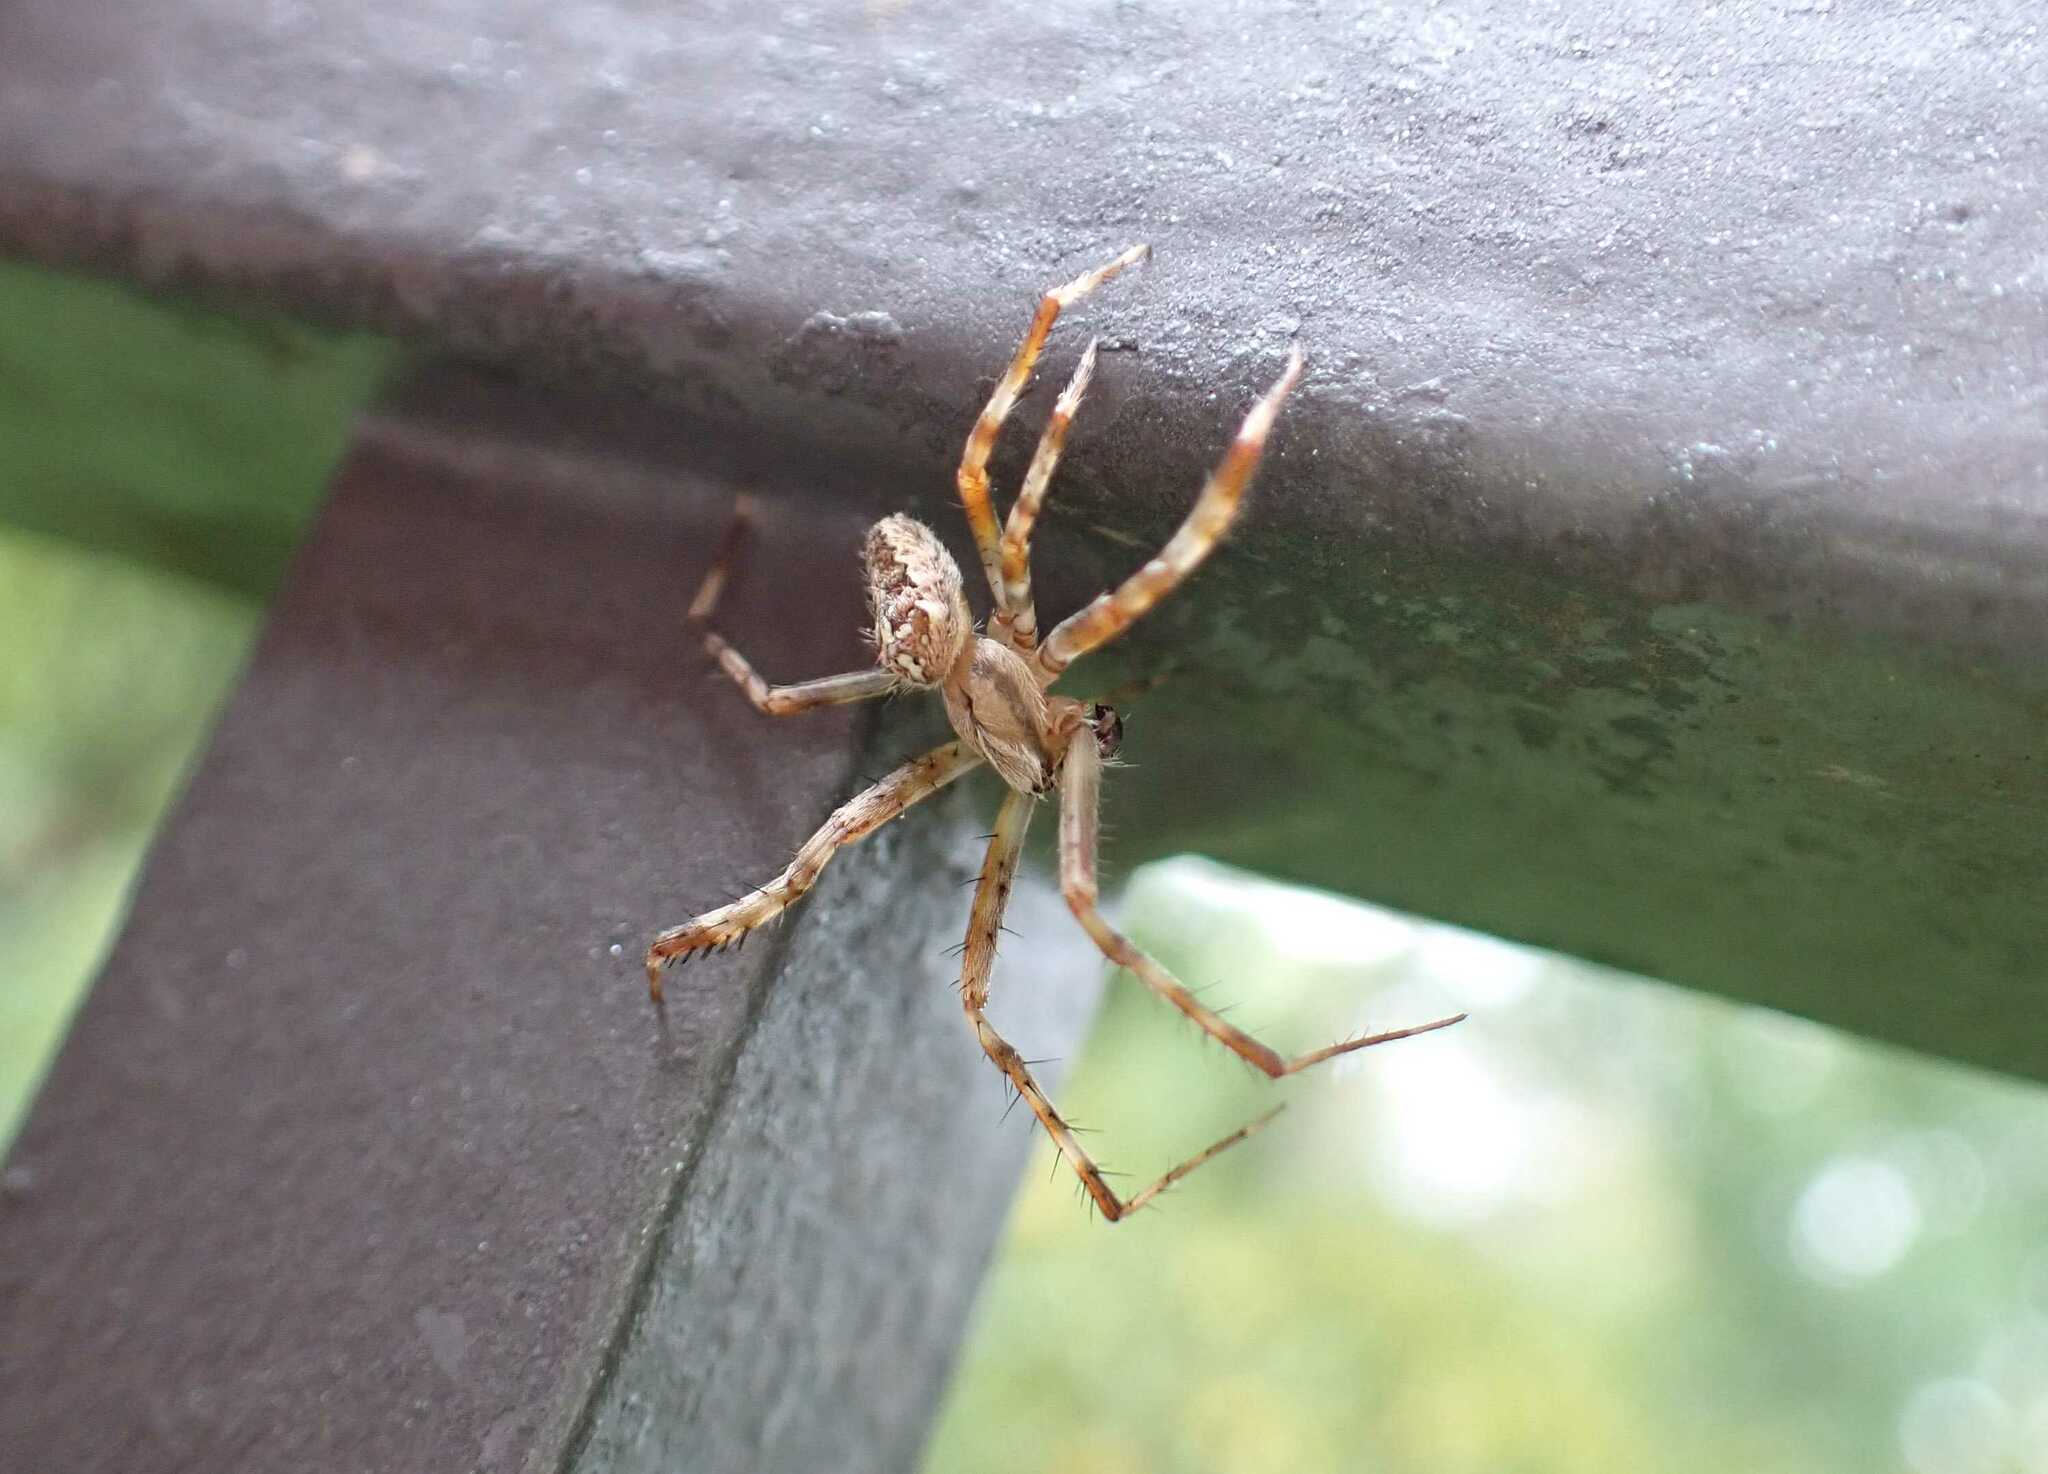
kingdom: Animalia
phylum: Arthropoda
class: Arachnida
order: Araneae
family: Araneidae
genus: Araneus
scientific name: Araneus diadematus
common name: Cross orbweaver
